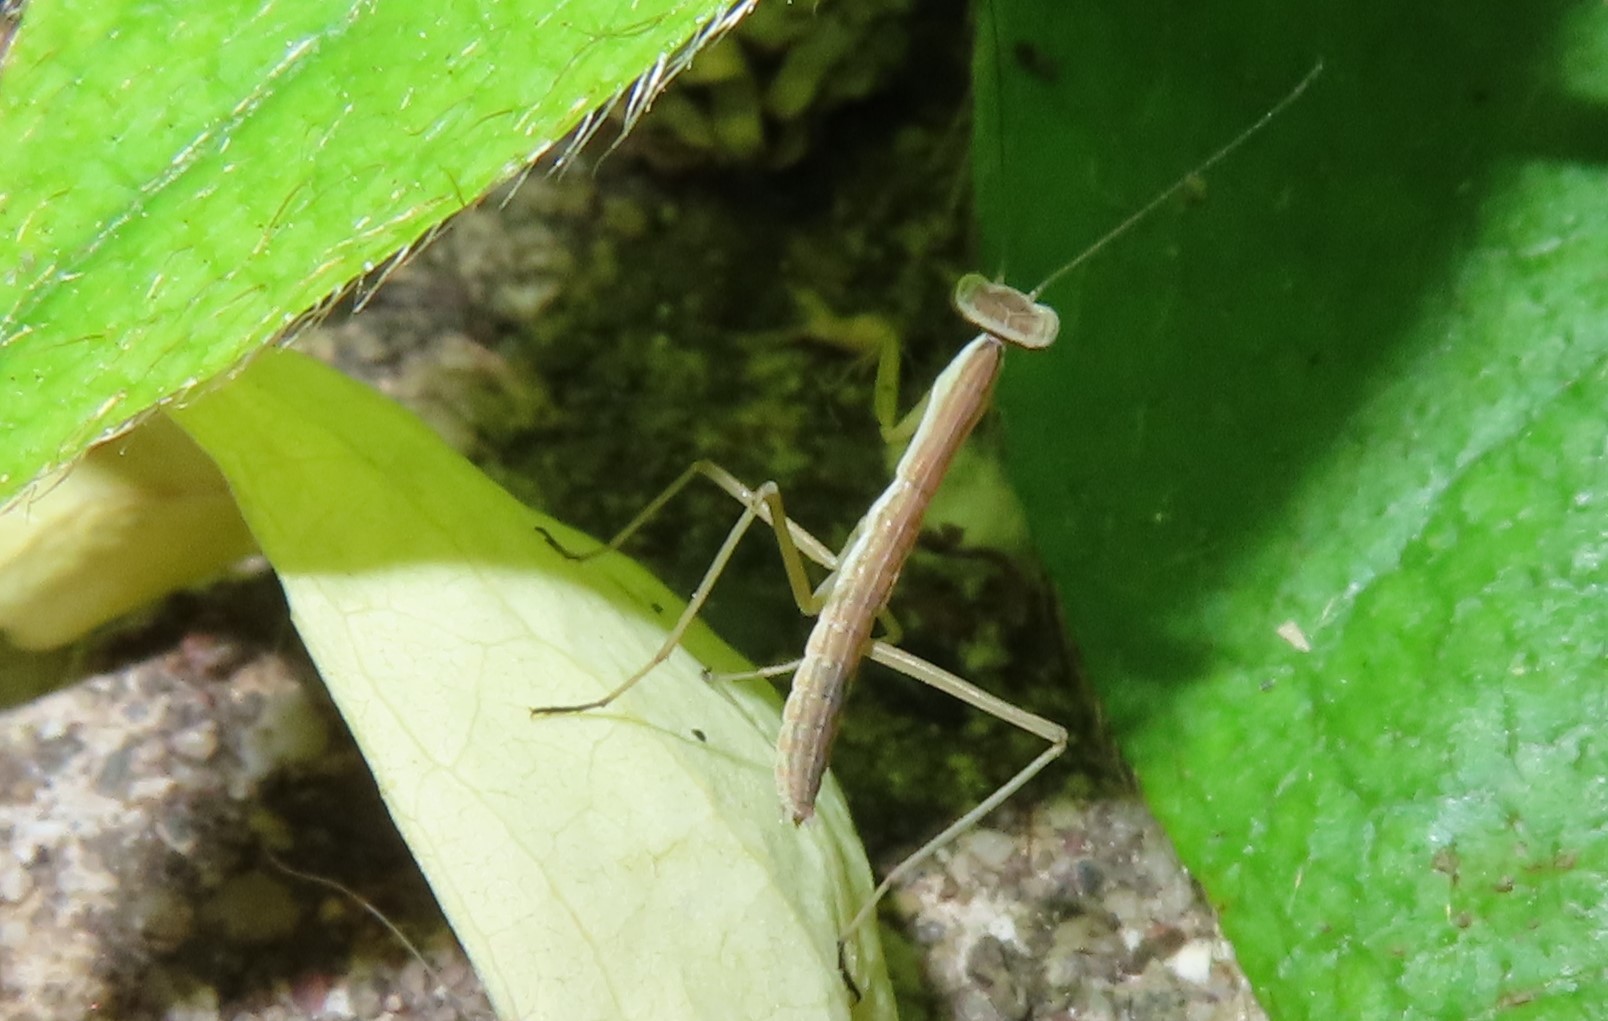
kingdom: Animalia
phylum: Arthropoda
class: Insecta
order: Mantodea
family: Mantidae
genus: Tenodera
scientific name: Tenodera sinensis
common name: Chinese mantis
